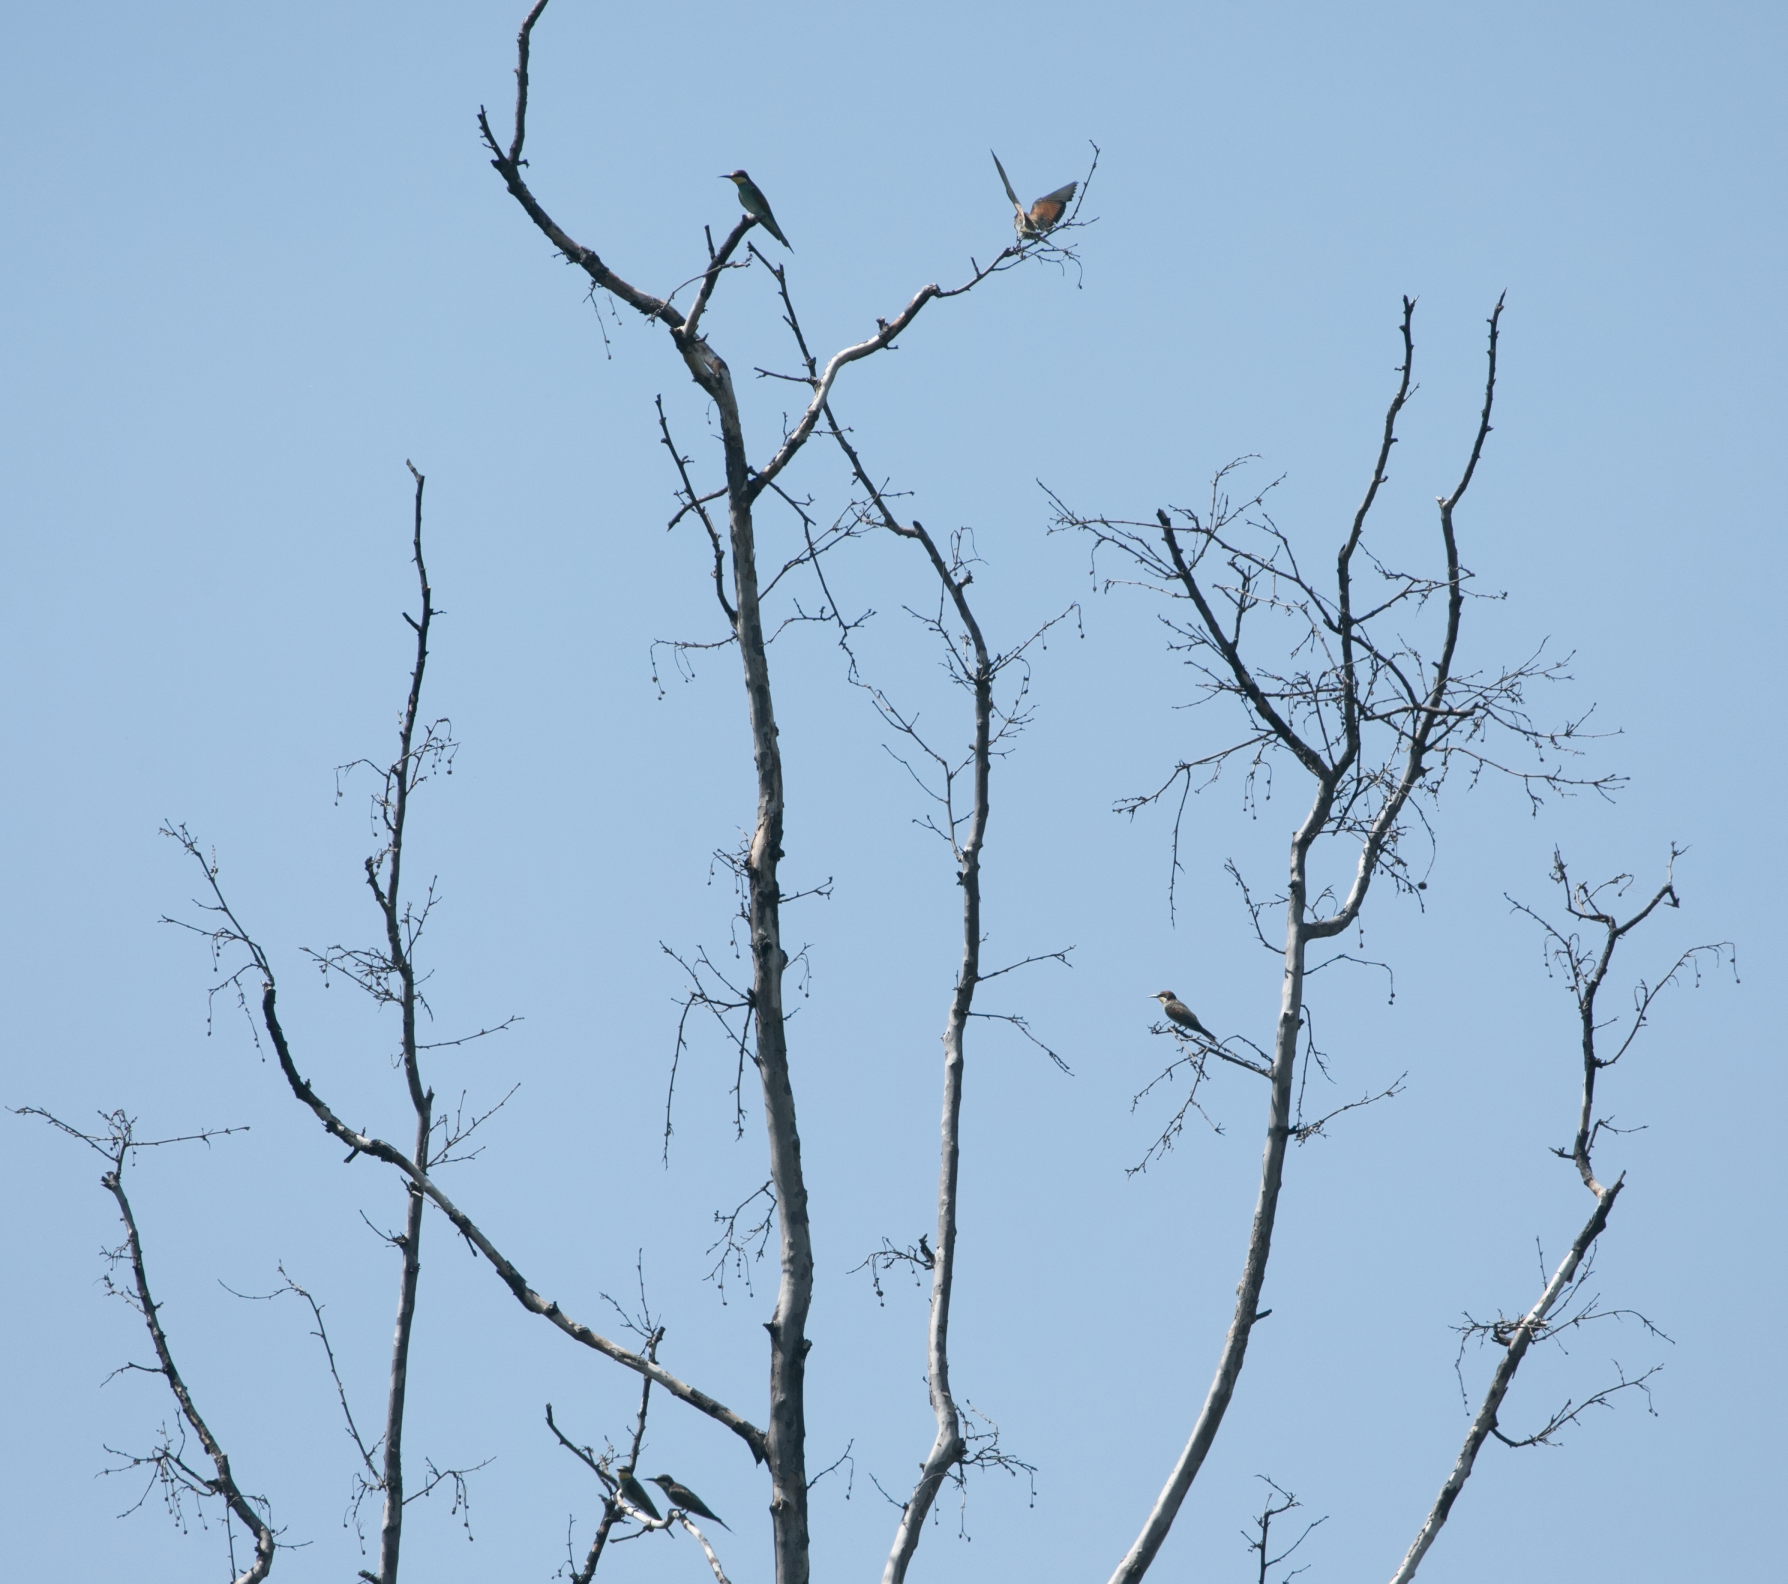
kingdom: Animalia
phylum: Chordata
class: Aves
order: Coraciiformes
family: Meropidae
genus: Merops
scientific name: Merops apiaster
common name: European bee-eater
